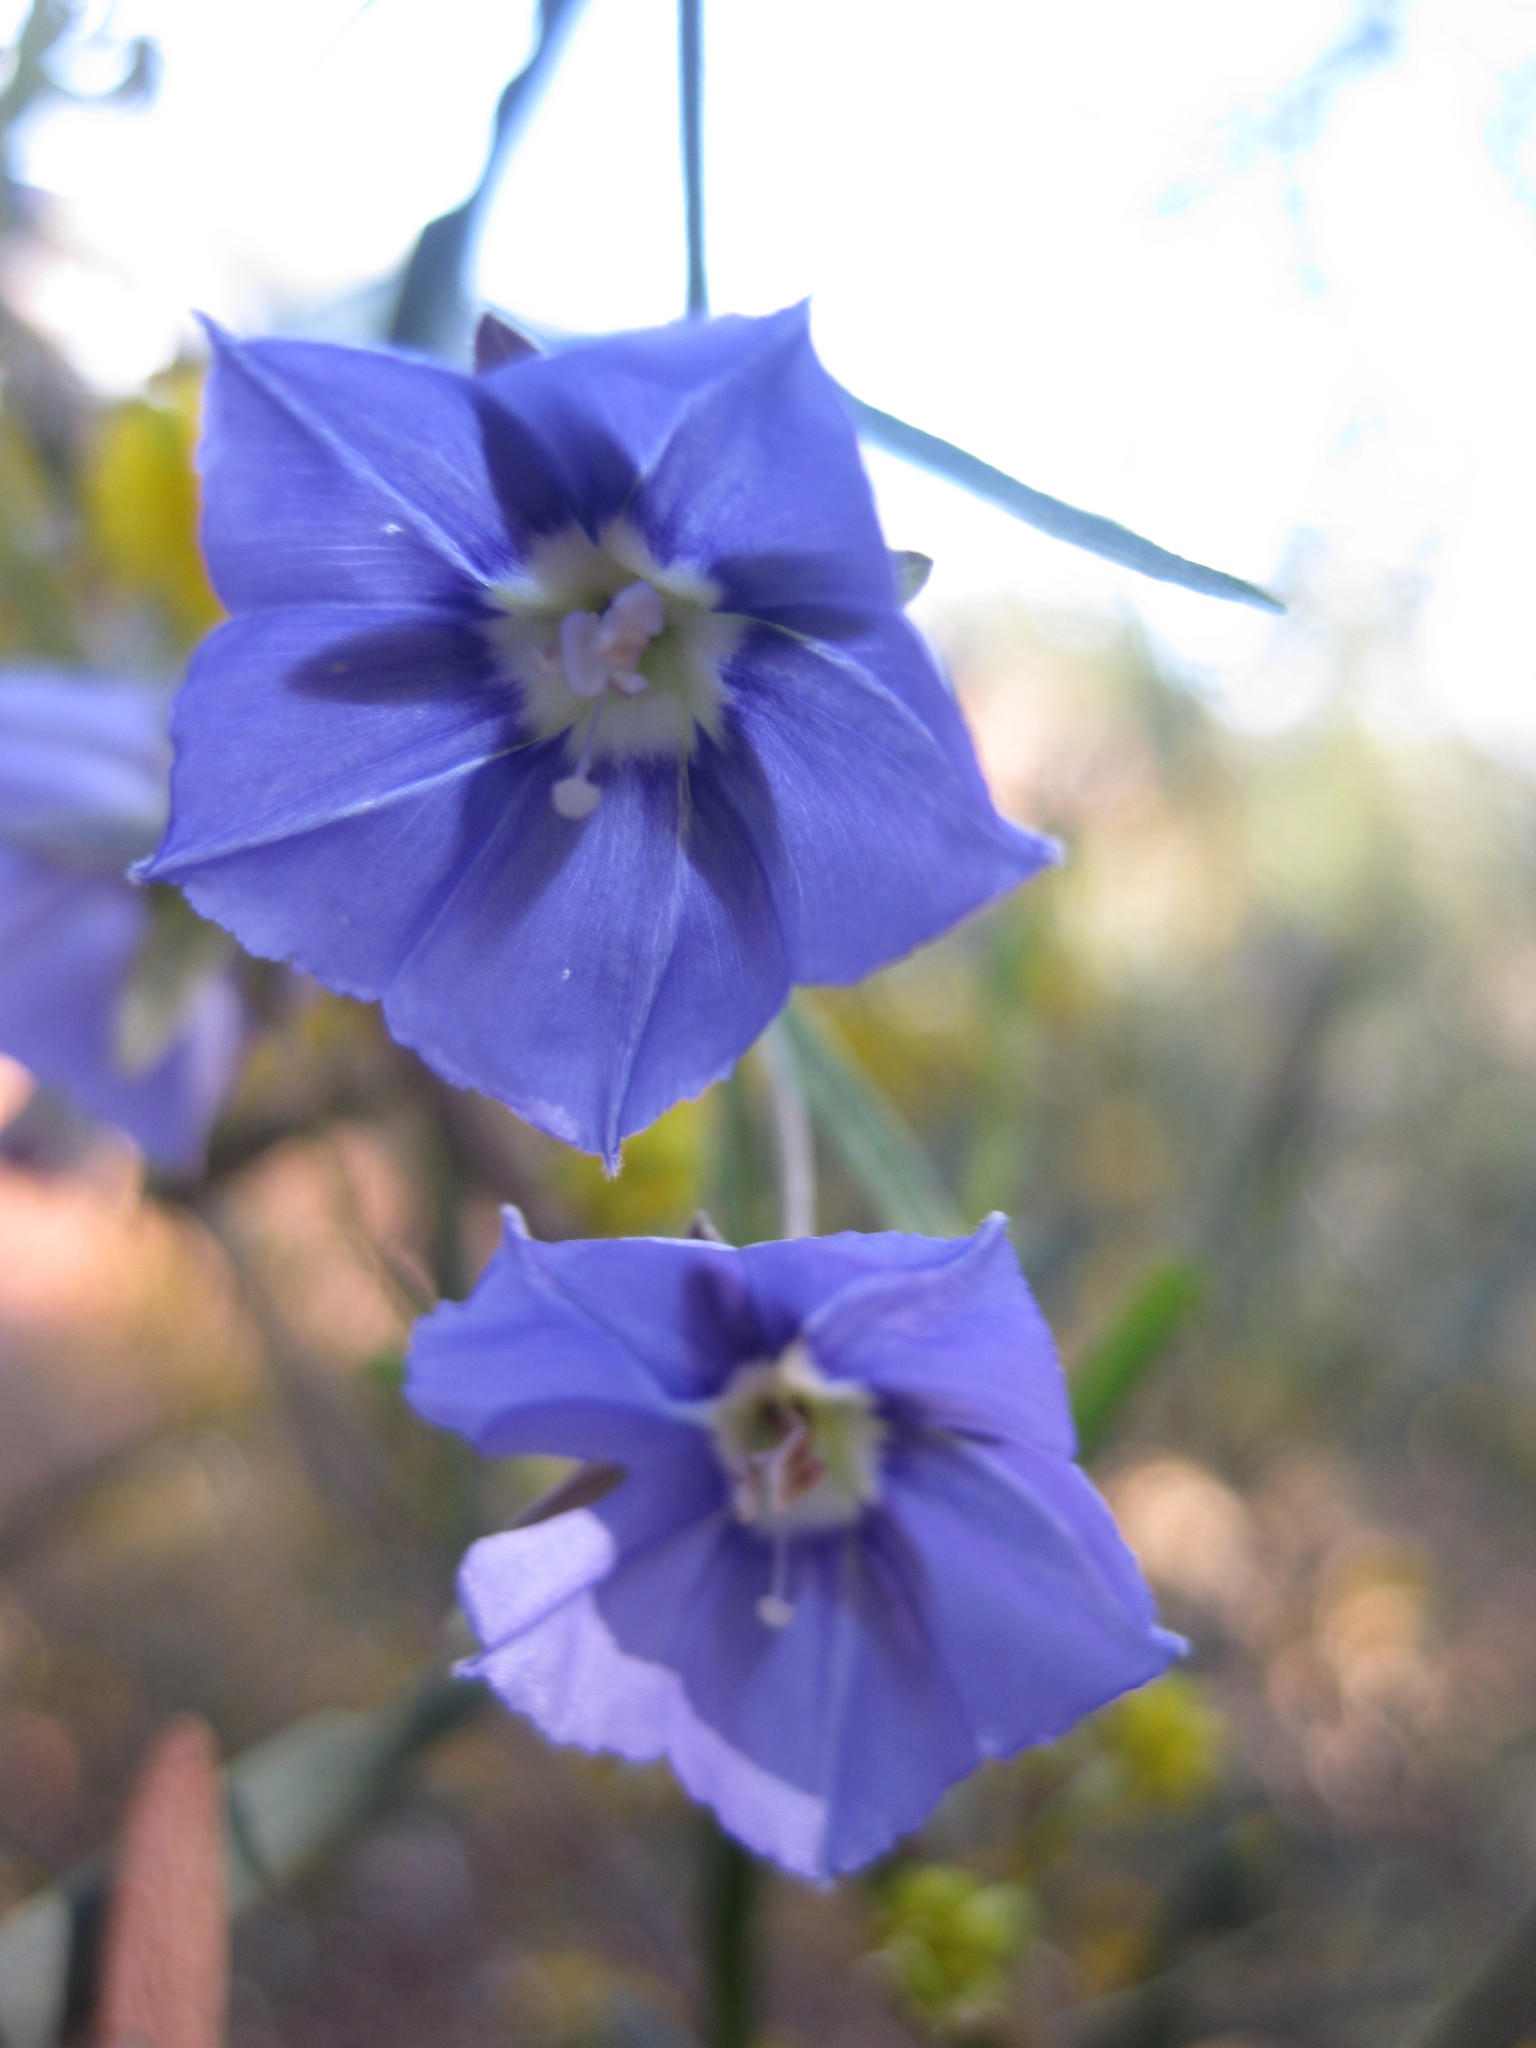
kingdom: Plantae
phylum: Tracheophyta
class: Magnoliopsida
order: Boraginales
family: Boraginaceae
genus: Trichodesma
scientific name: Trichodesma zeylanicum
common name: Camelbush
